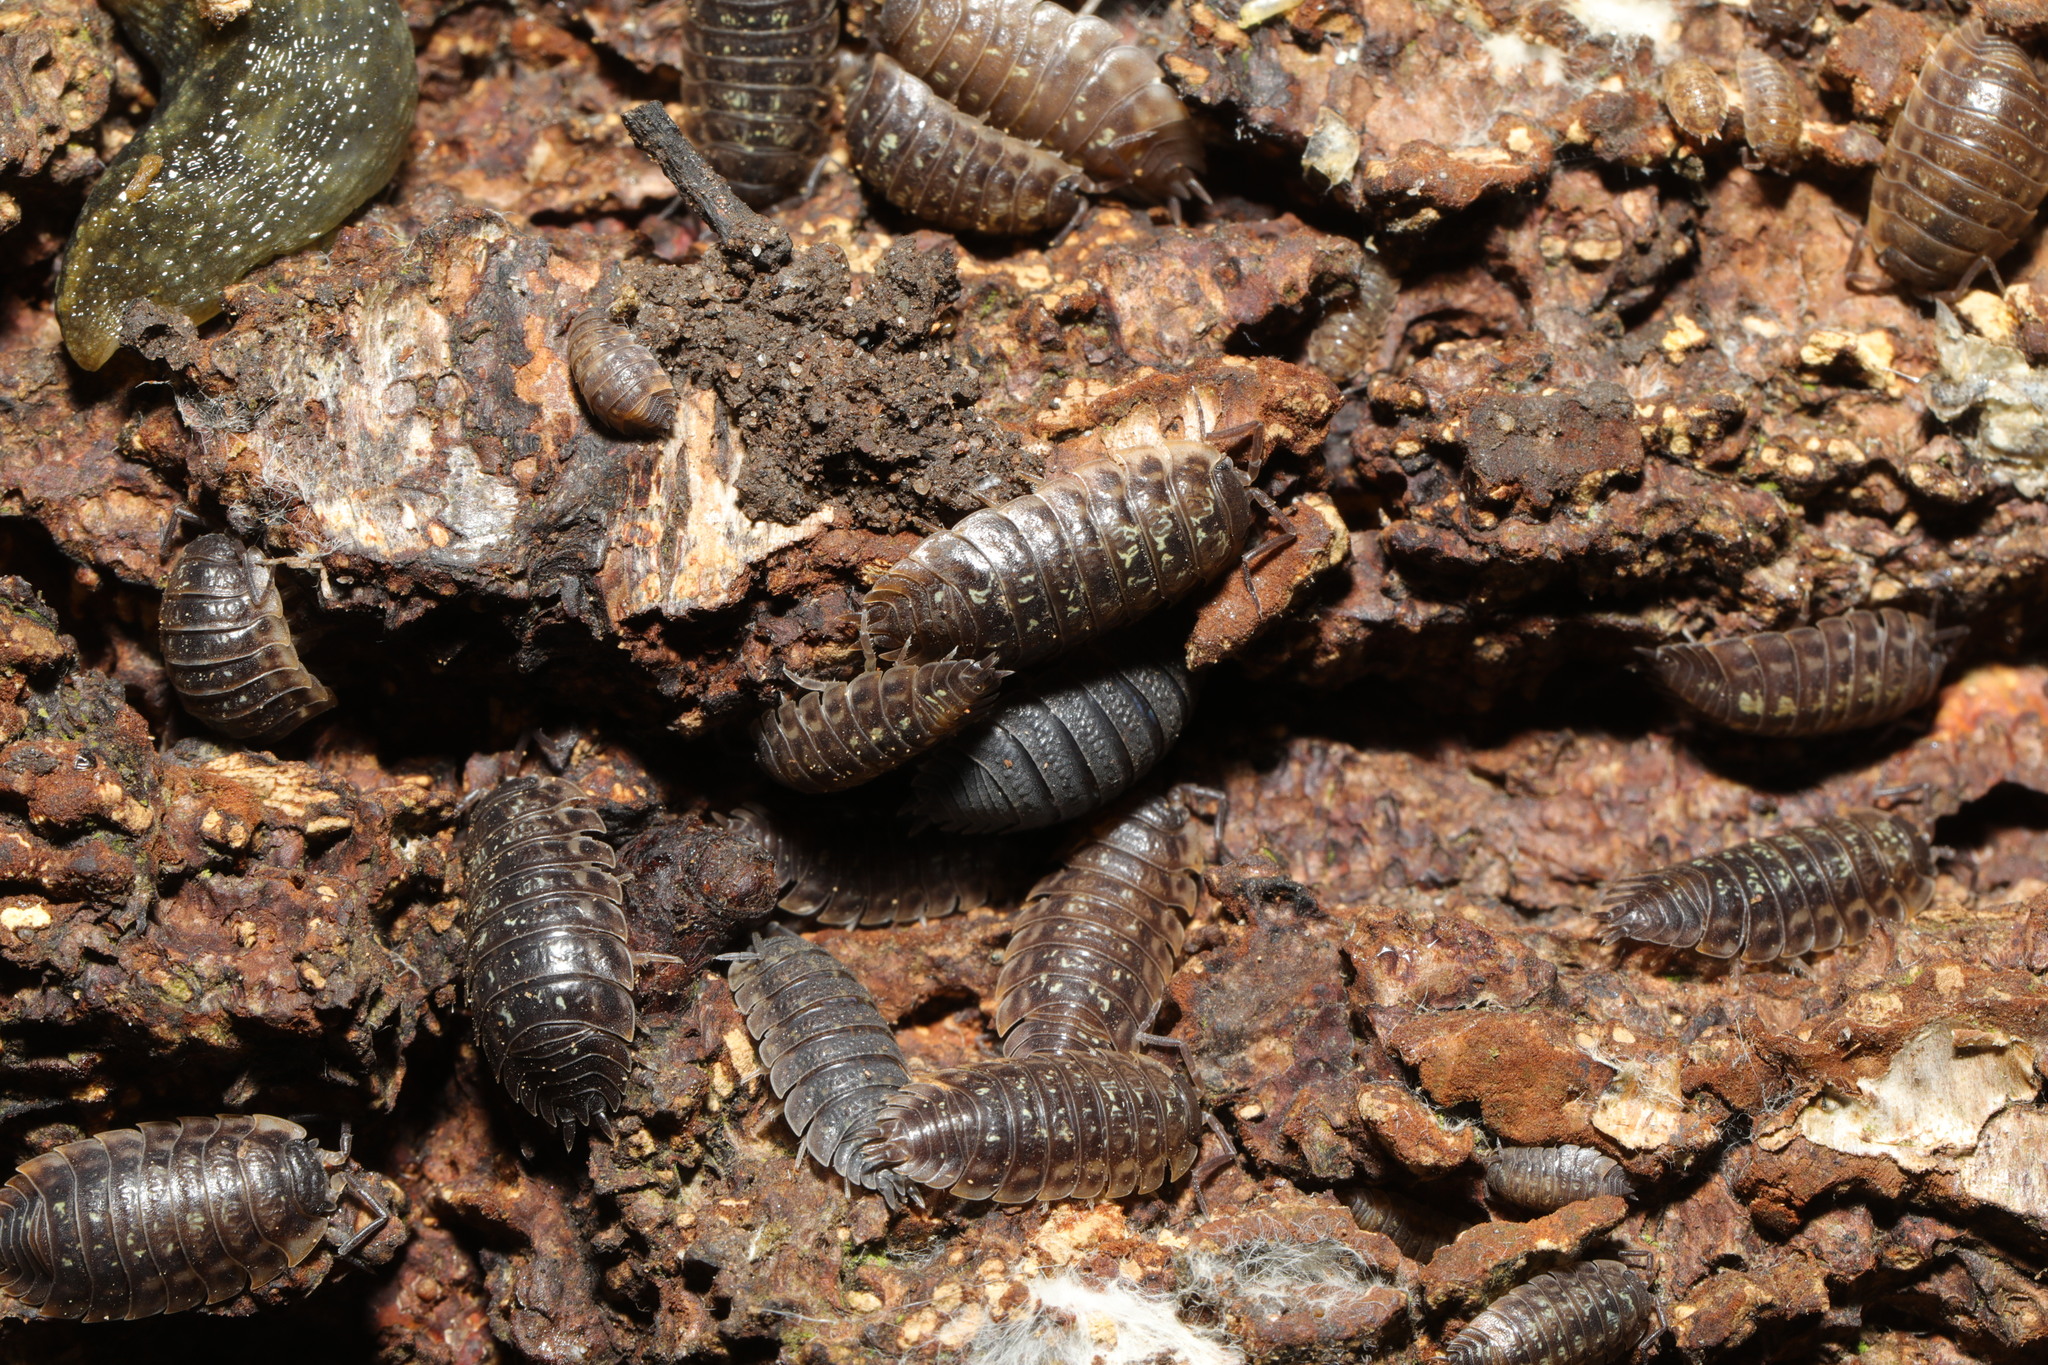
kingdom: Animalia
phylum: Arthropoda
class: Malacostraca
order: Isopoda
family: Porcellionidae
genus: Porcellio
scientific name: Porcellio scaber
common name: Common rough woodlouse
